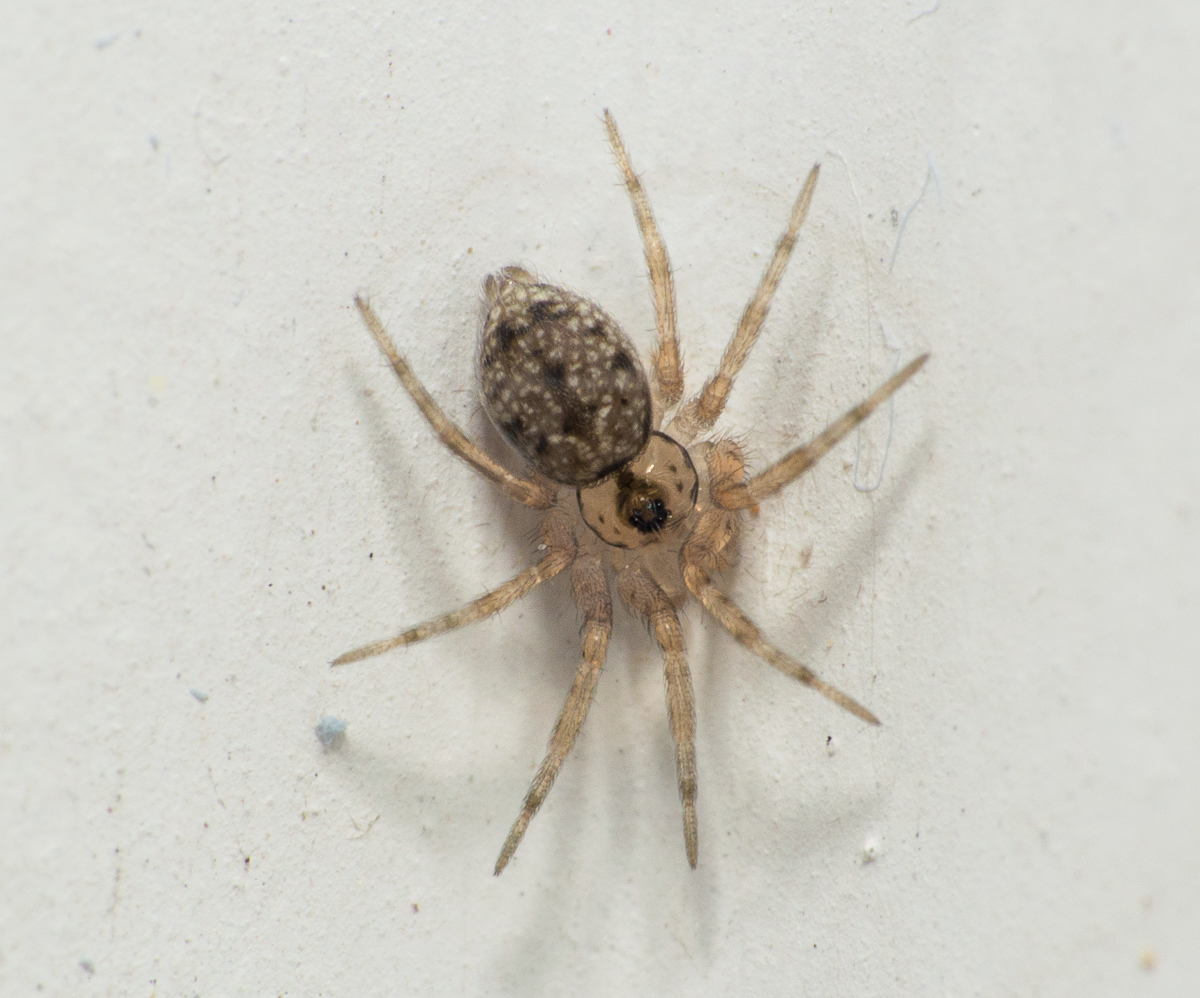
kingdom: Animalia
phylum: Arthropoda
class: Arachnida
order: Araneae
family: Oecobiidae
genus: Oecobius
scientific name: Oecobius navus
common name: Flatmesh weaver
